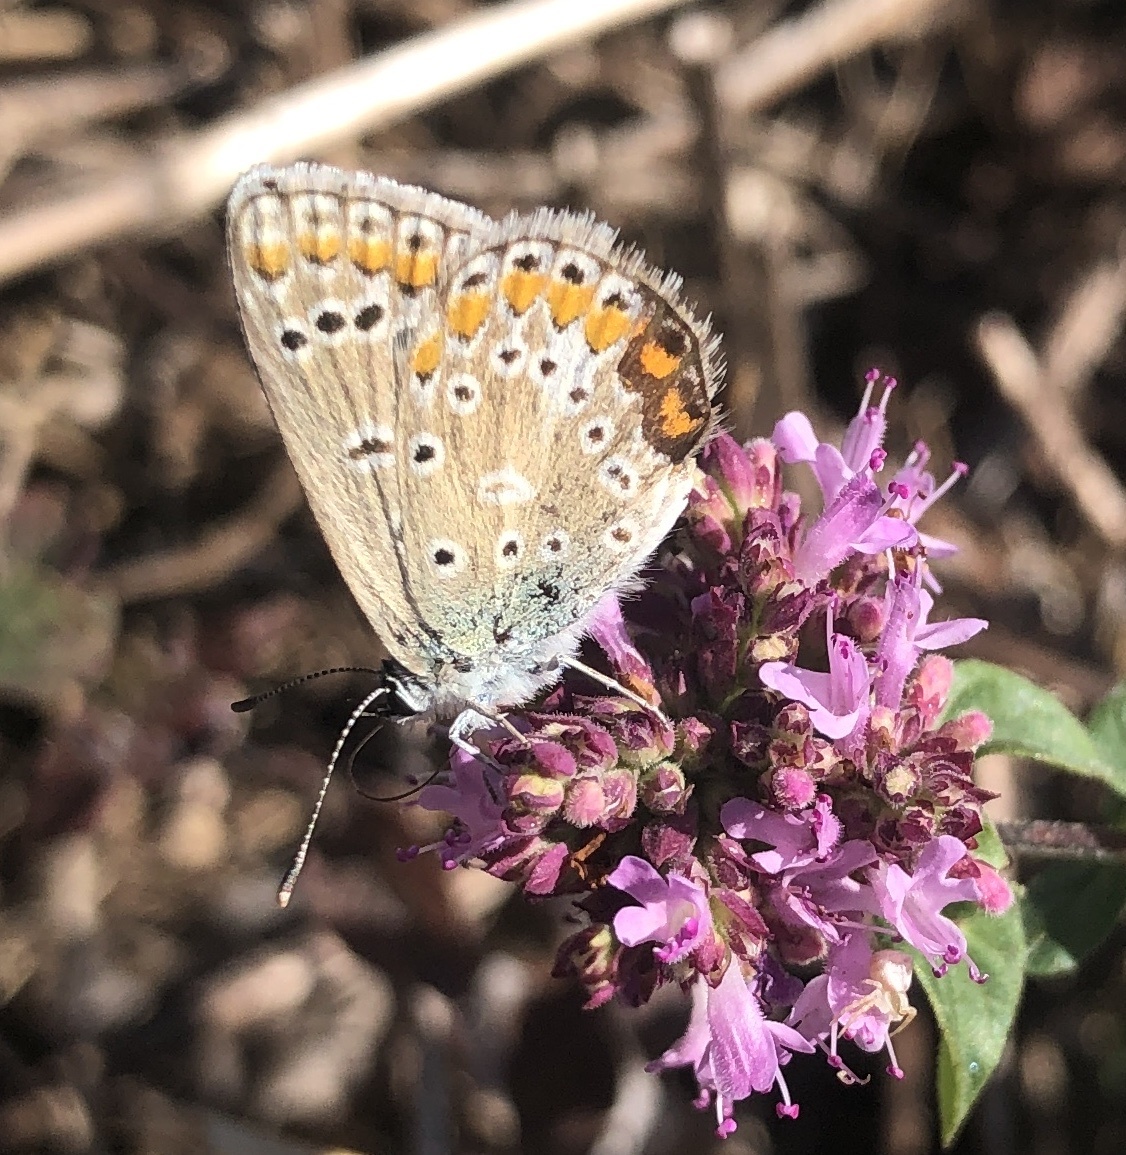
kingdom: Animalia
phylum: Arthropoda
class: Insecta
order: Lepidoptera
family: Lycaenidae
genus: Polyommatus
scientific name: Polyommatus icarus
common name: Common blue
